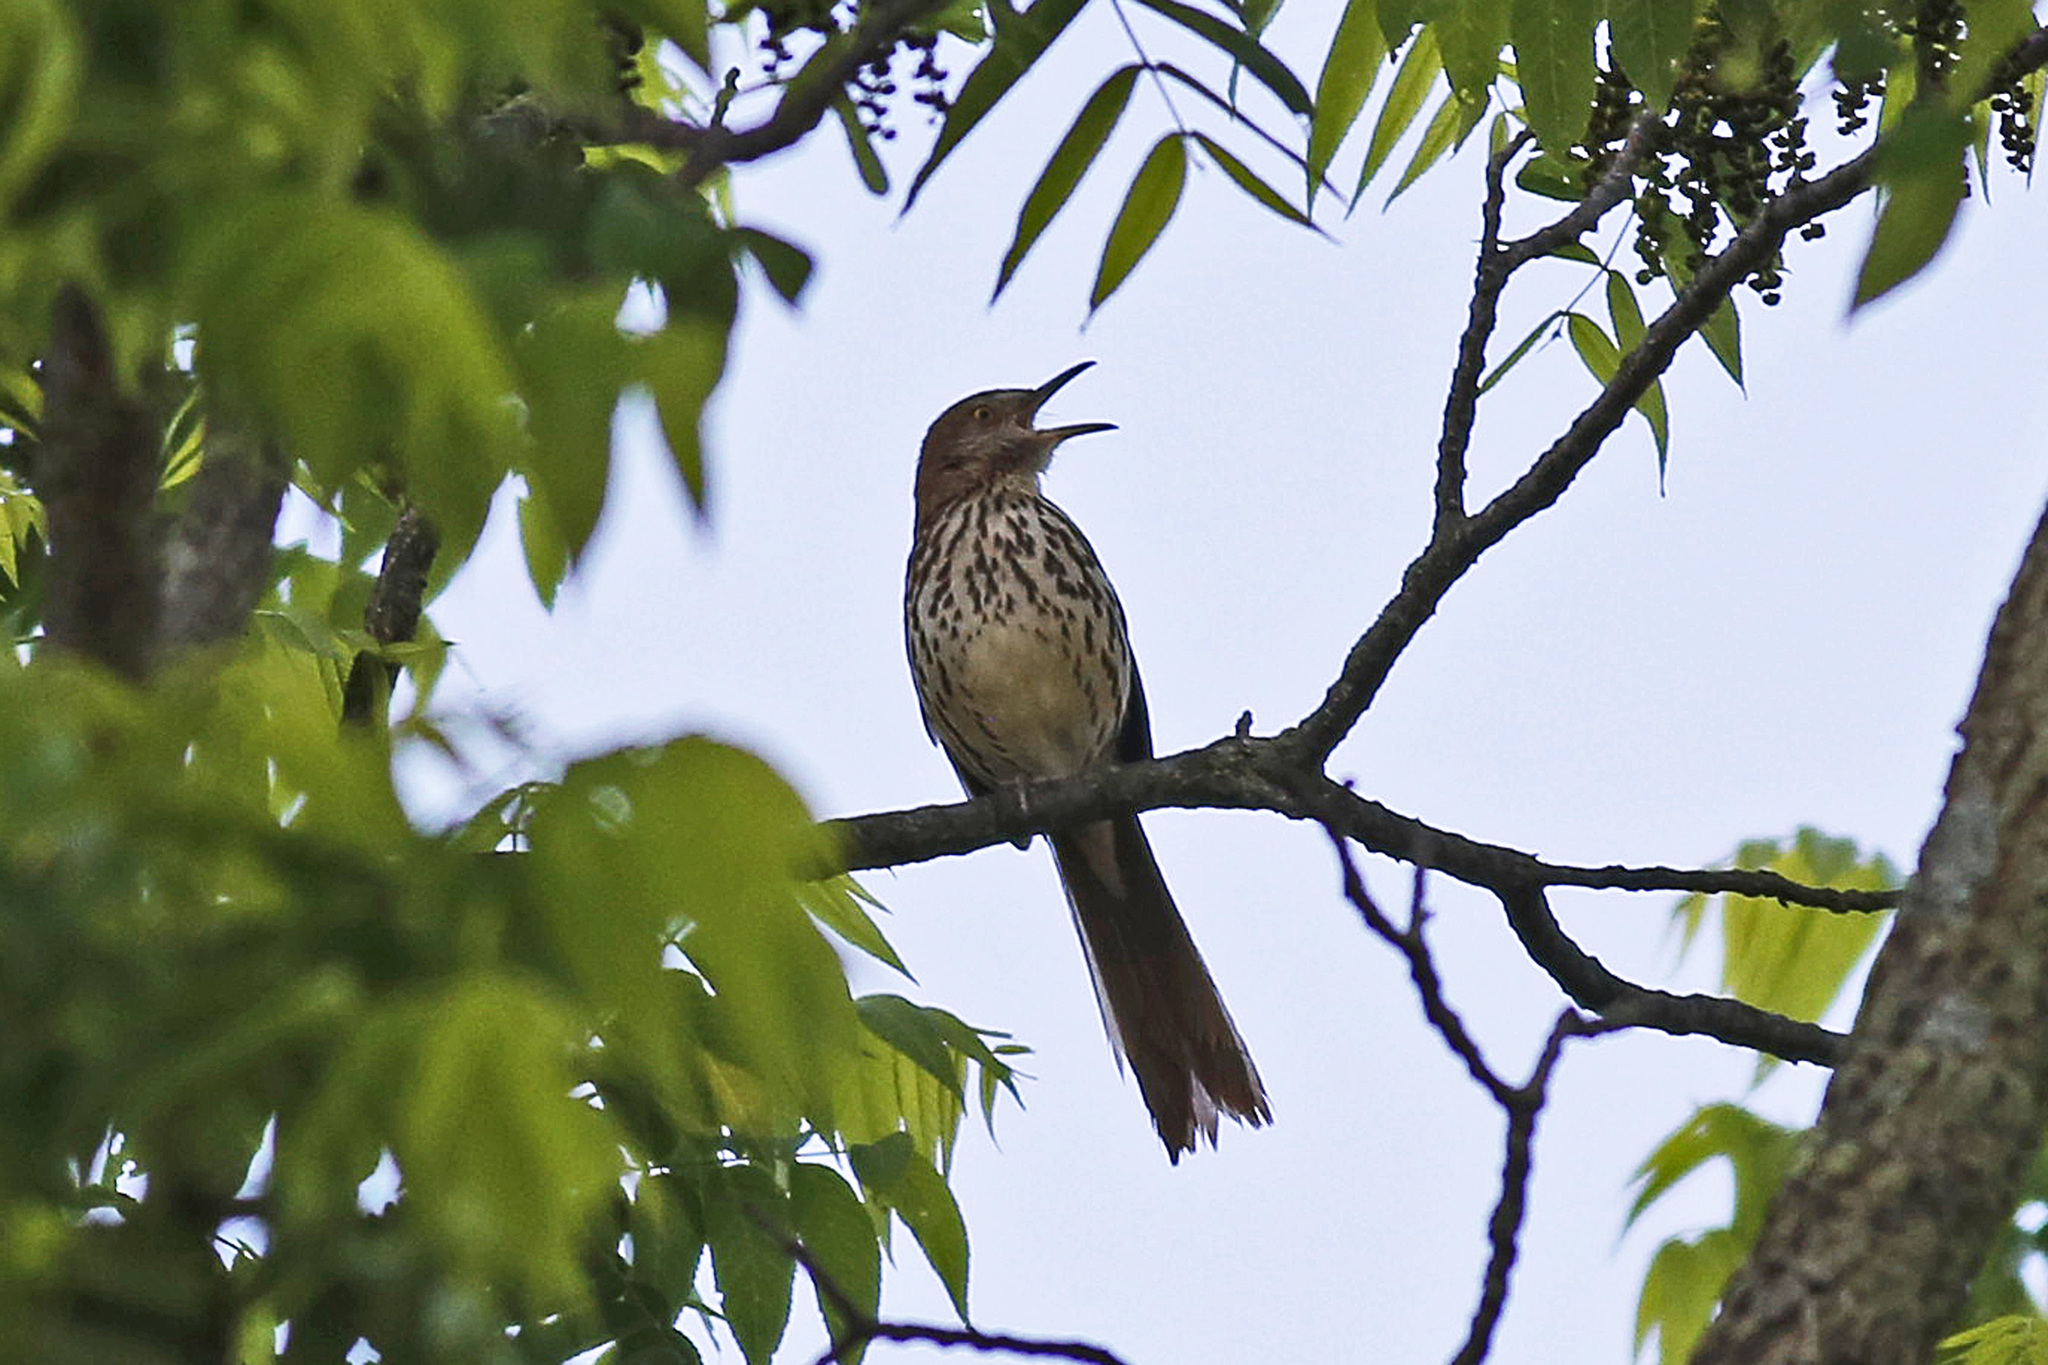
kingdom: Animalia
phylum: Chordata
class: Aves
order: Passeriformes
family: Mimidae
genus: Toxostoma
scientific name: Toxostoma rufum
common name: Brown thrasher
